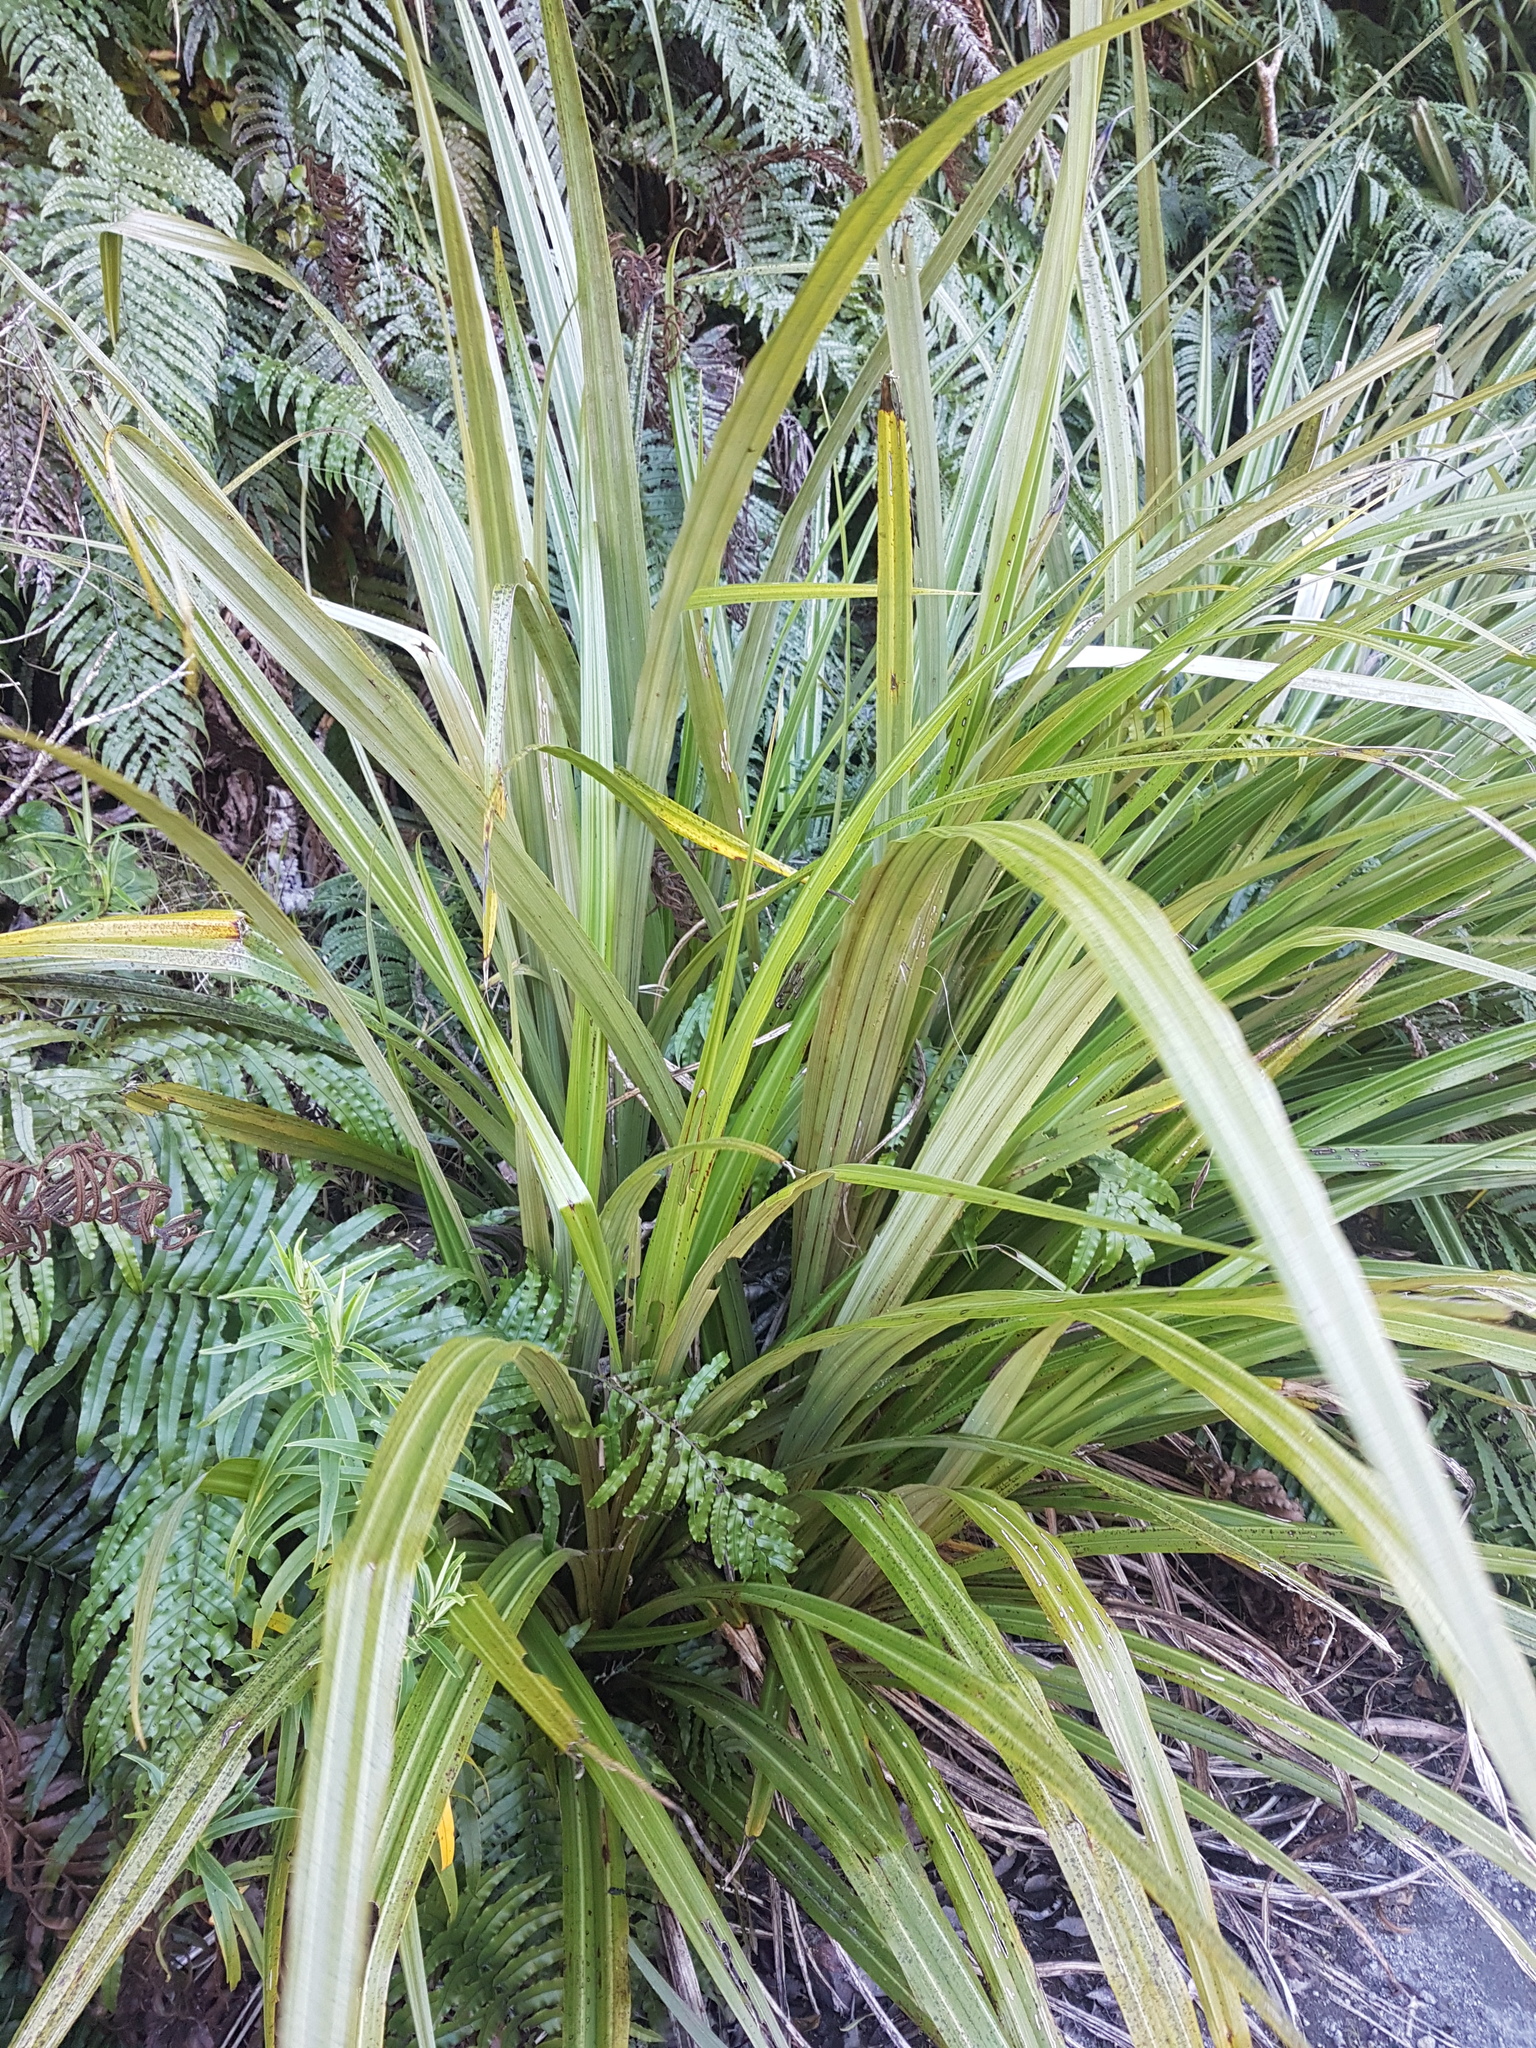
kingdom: Plantae
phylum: Tracheophyta
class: Liliopsida
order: Asparagales
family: Asteliaceae
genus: Astelia
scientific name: Astelia fragrans
